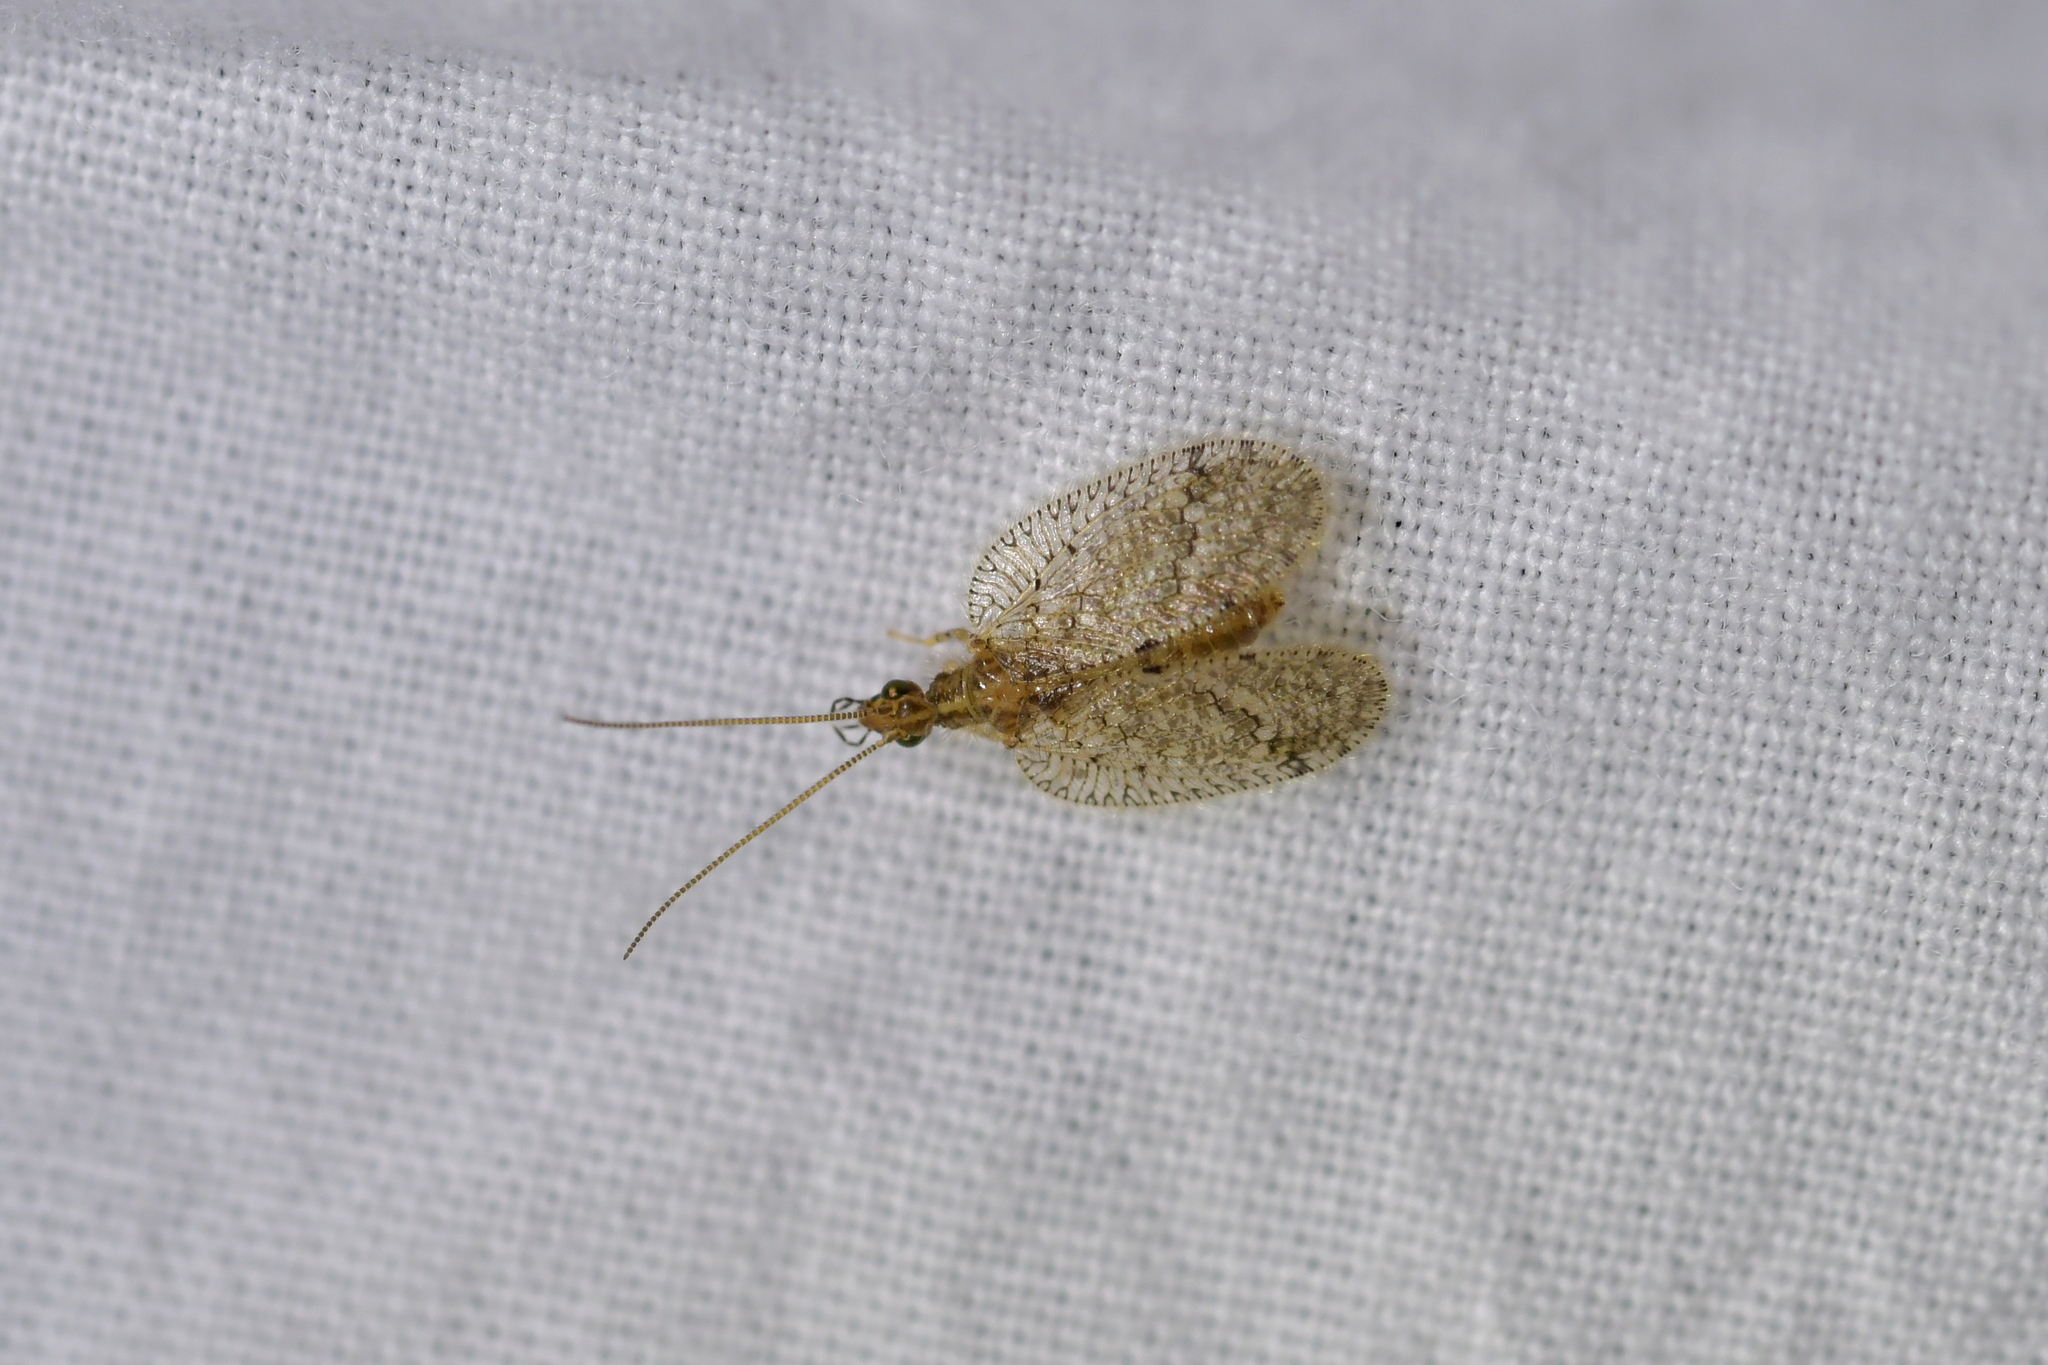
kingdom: Animalia
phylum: Arthropoda
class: Insecta
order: Neuroptera
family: Hemerobiidae
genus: Psectra
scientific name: Psectra nakaharai
